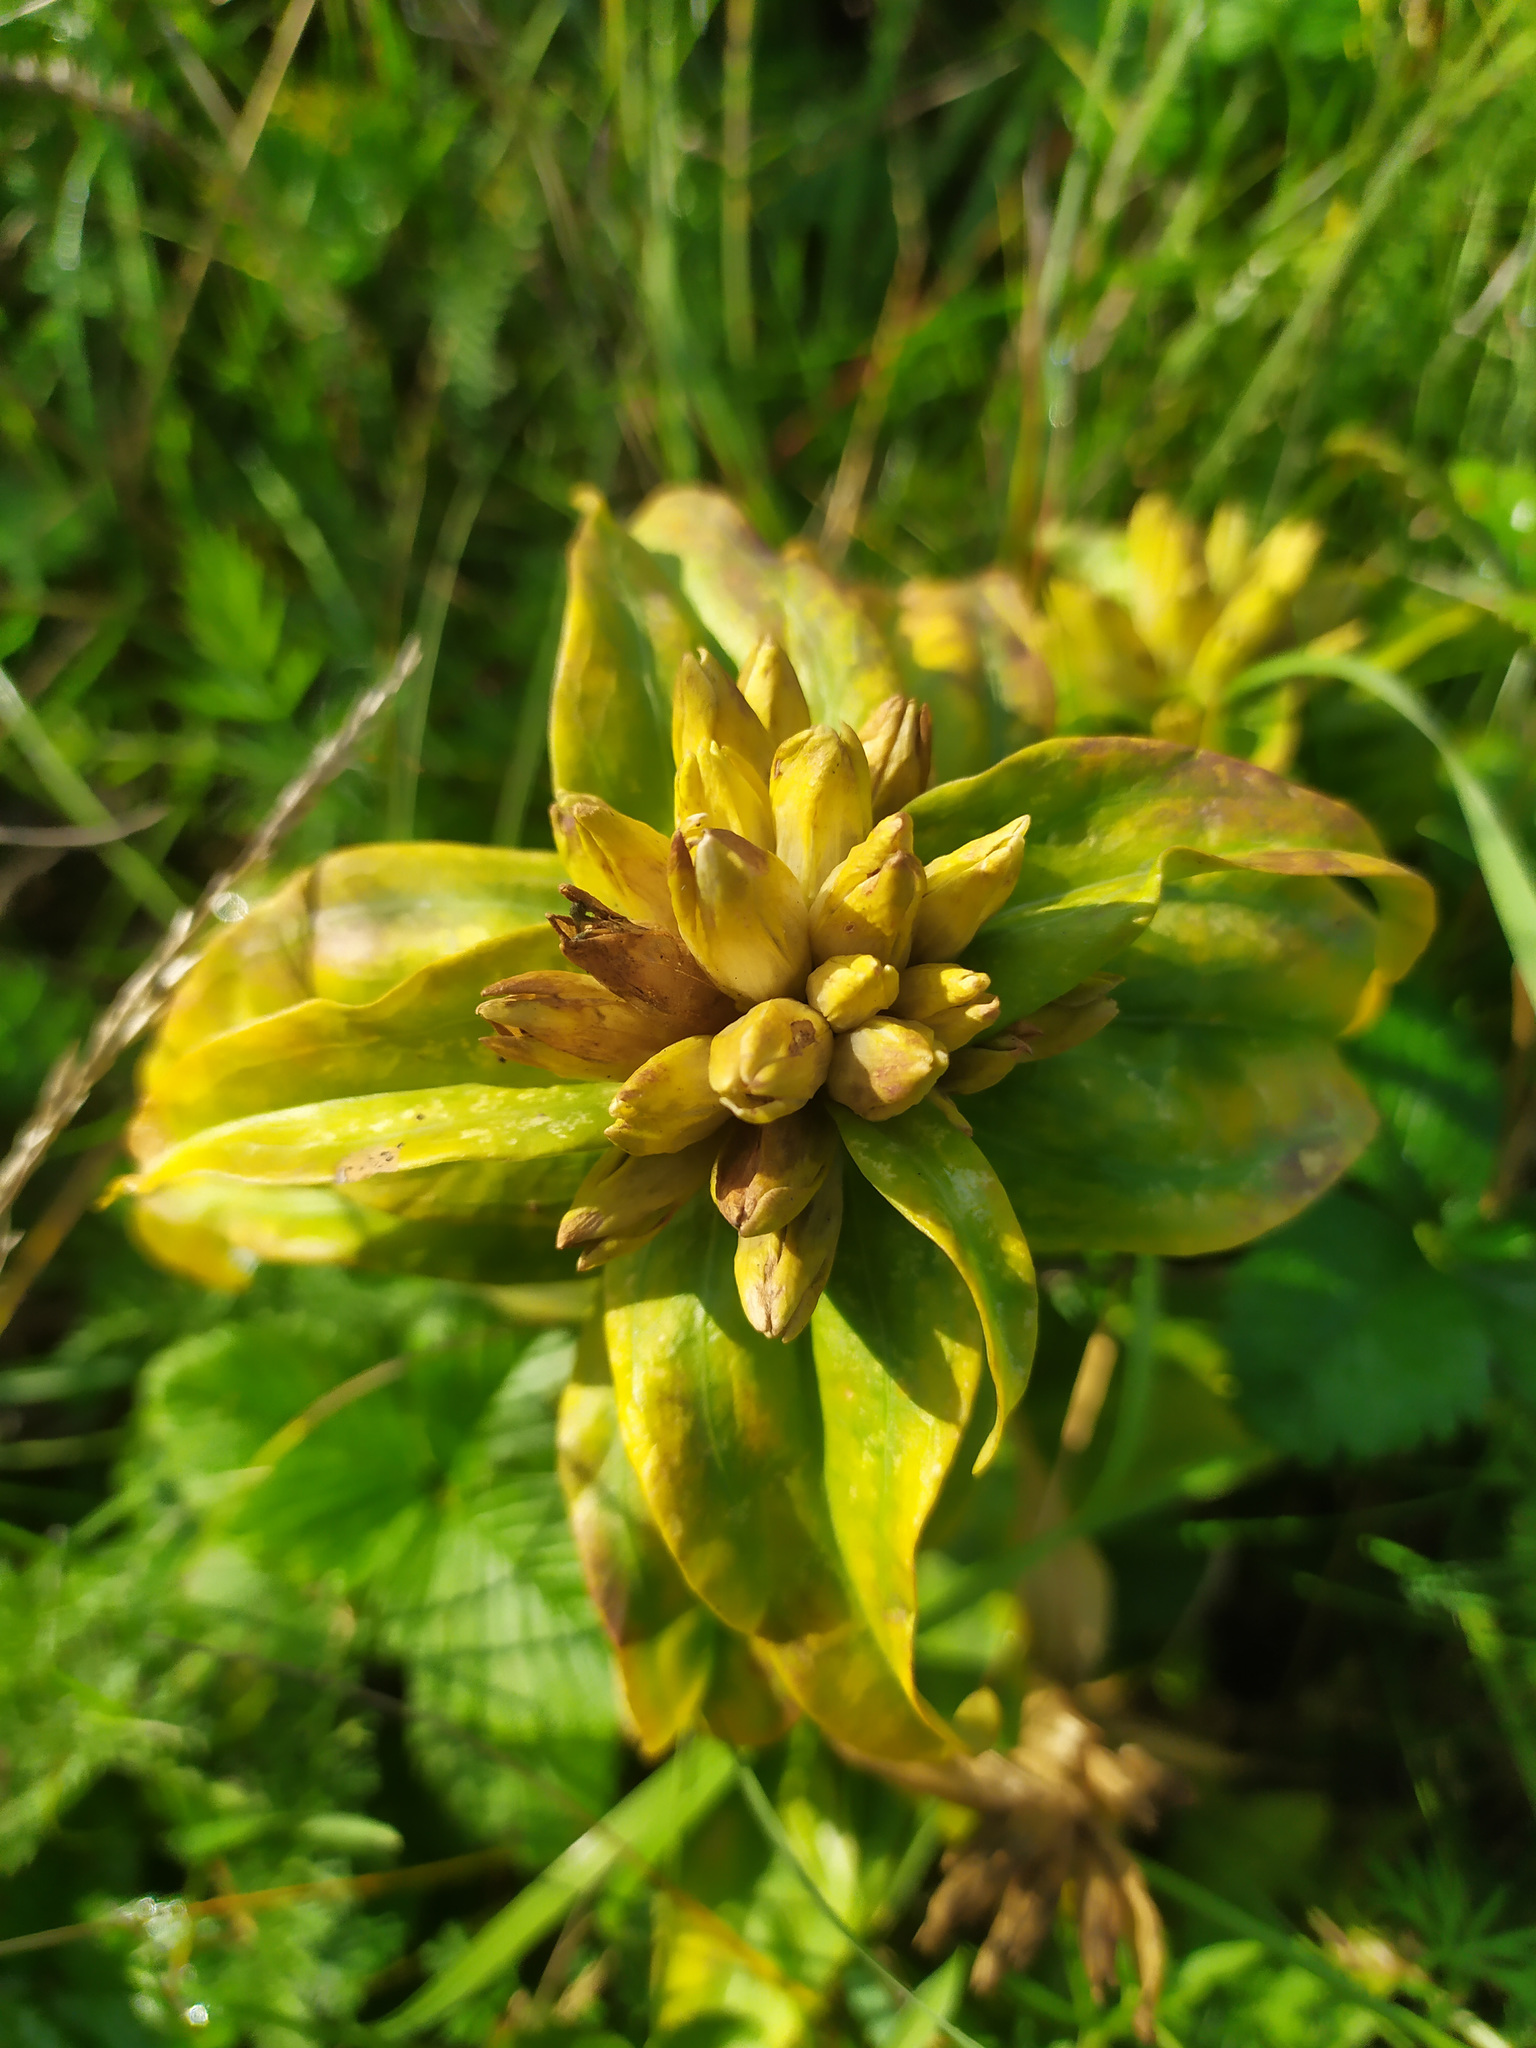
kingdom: Plantae
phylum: Tracheophyta
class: Magnoliopsida
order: Gentianales
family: Gentianaceae
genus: Gentiana
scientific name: Gentiana cruciata
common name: Cross gentian
